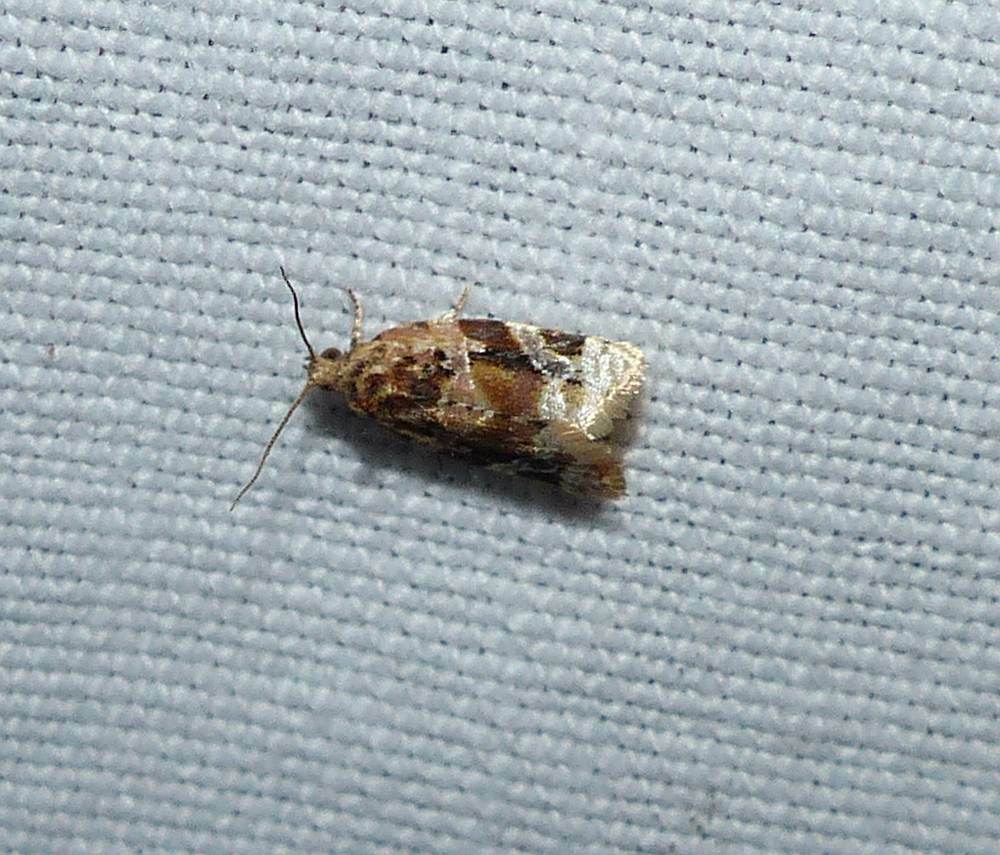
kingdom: Animalia
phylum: Arthropoda
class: Insecta
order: Lepidoptera
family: Tortricidae
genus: Argyrotaenia
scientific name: Argyrotaenia velutinana
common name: Red-banded leafroller moth
